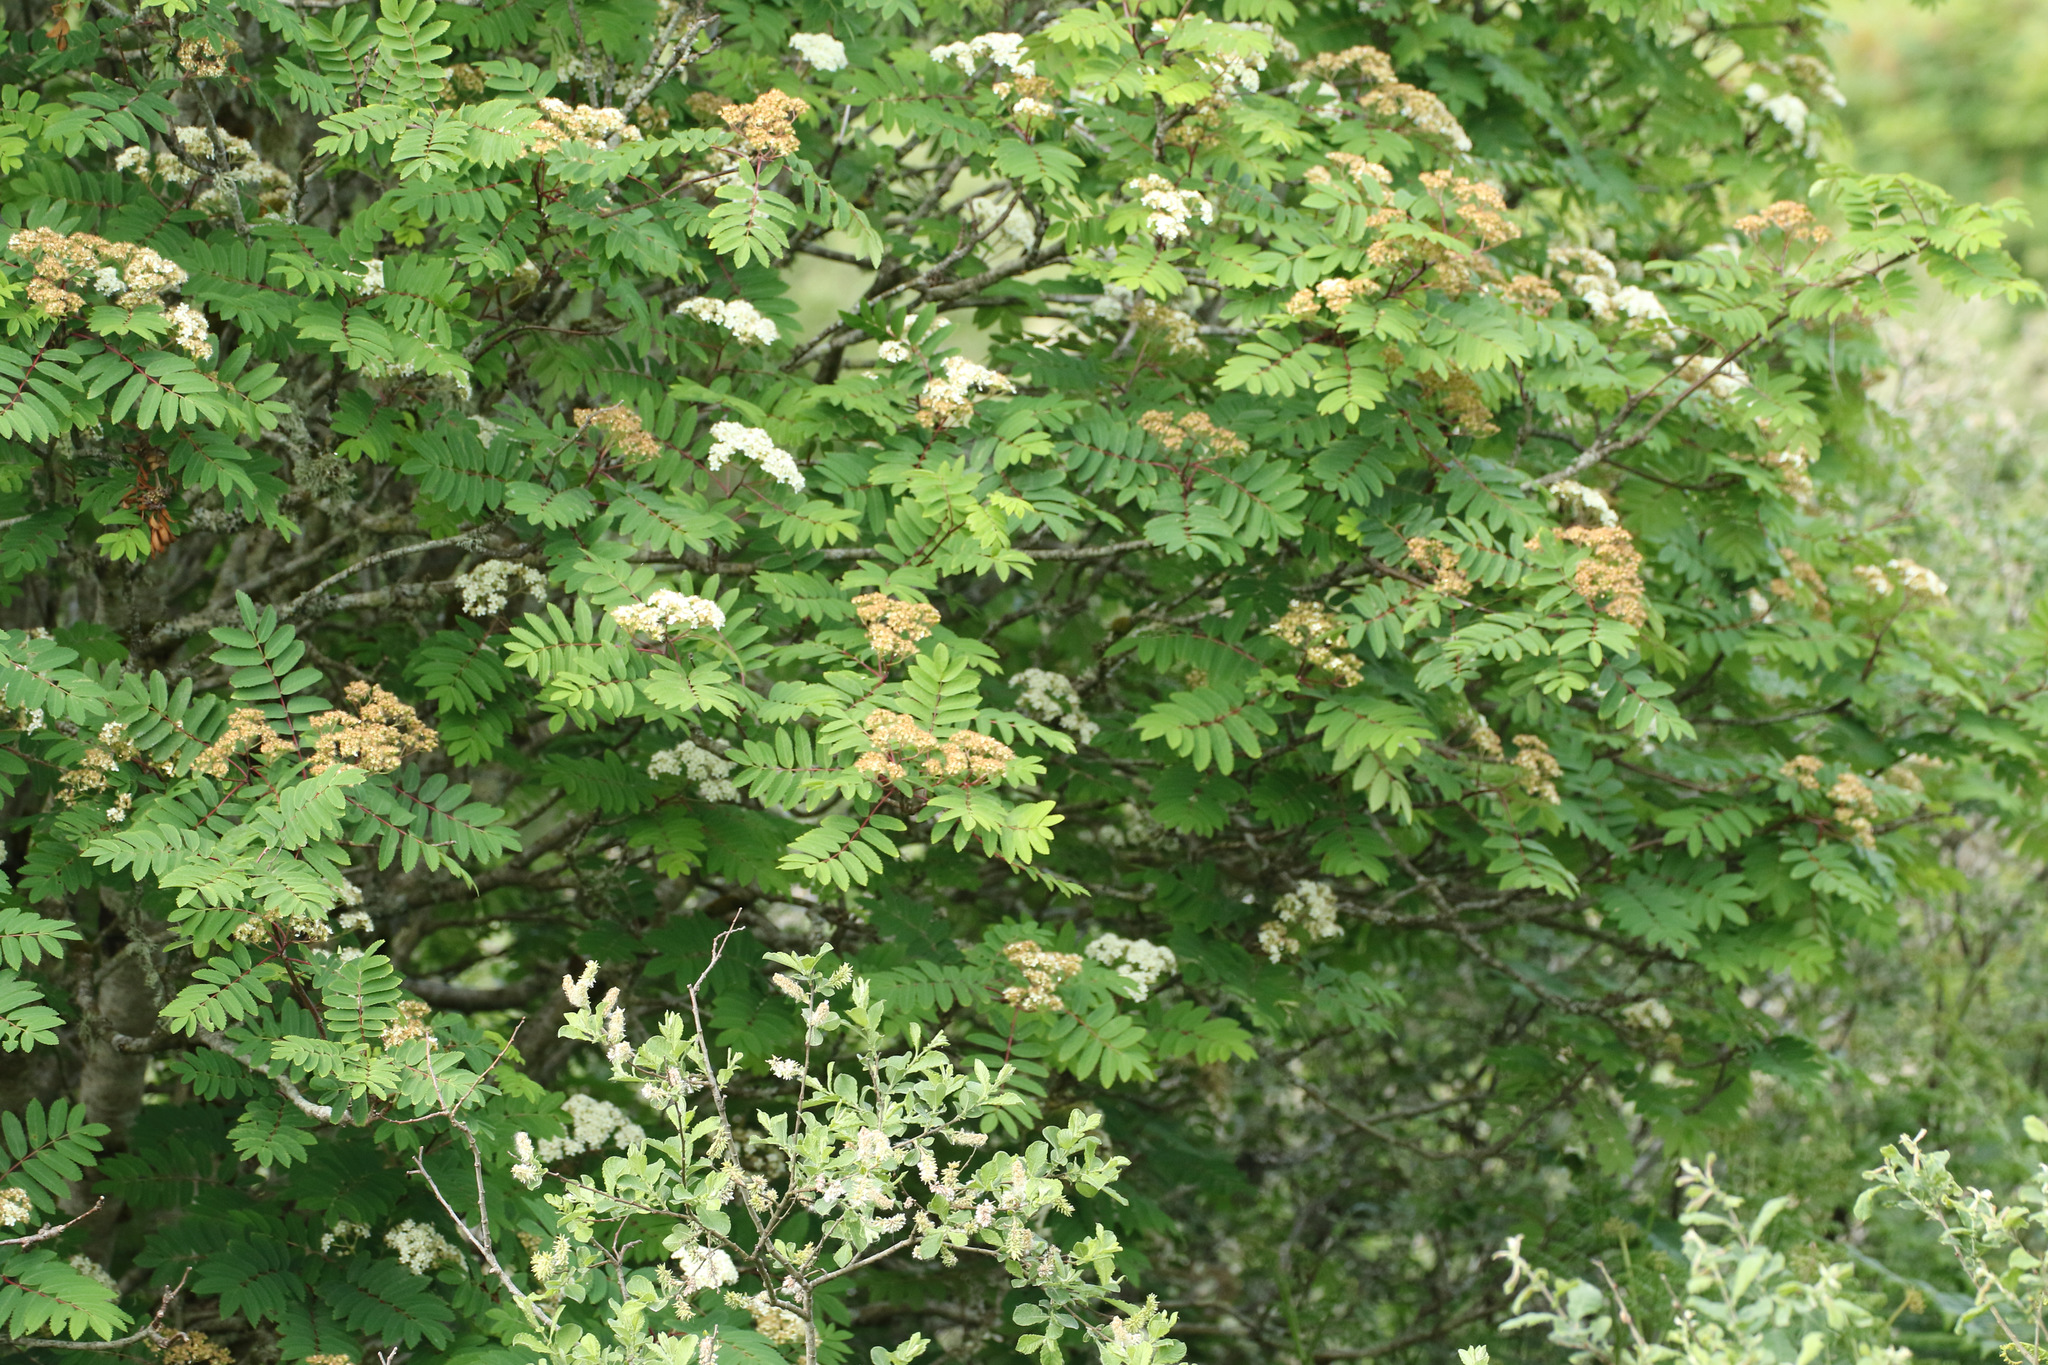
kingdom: Plantae
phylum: Tracheophyta
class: Magnoliopsida
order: Rosales
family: Rosaceae
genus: Sorbus
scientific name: Sorbus aucuparia
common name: Rowan
